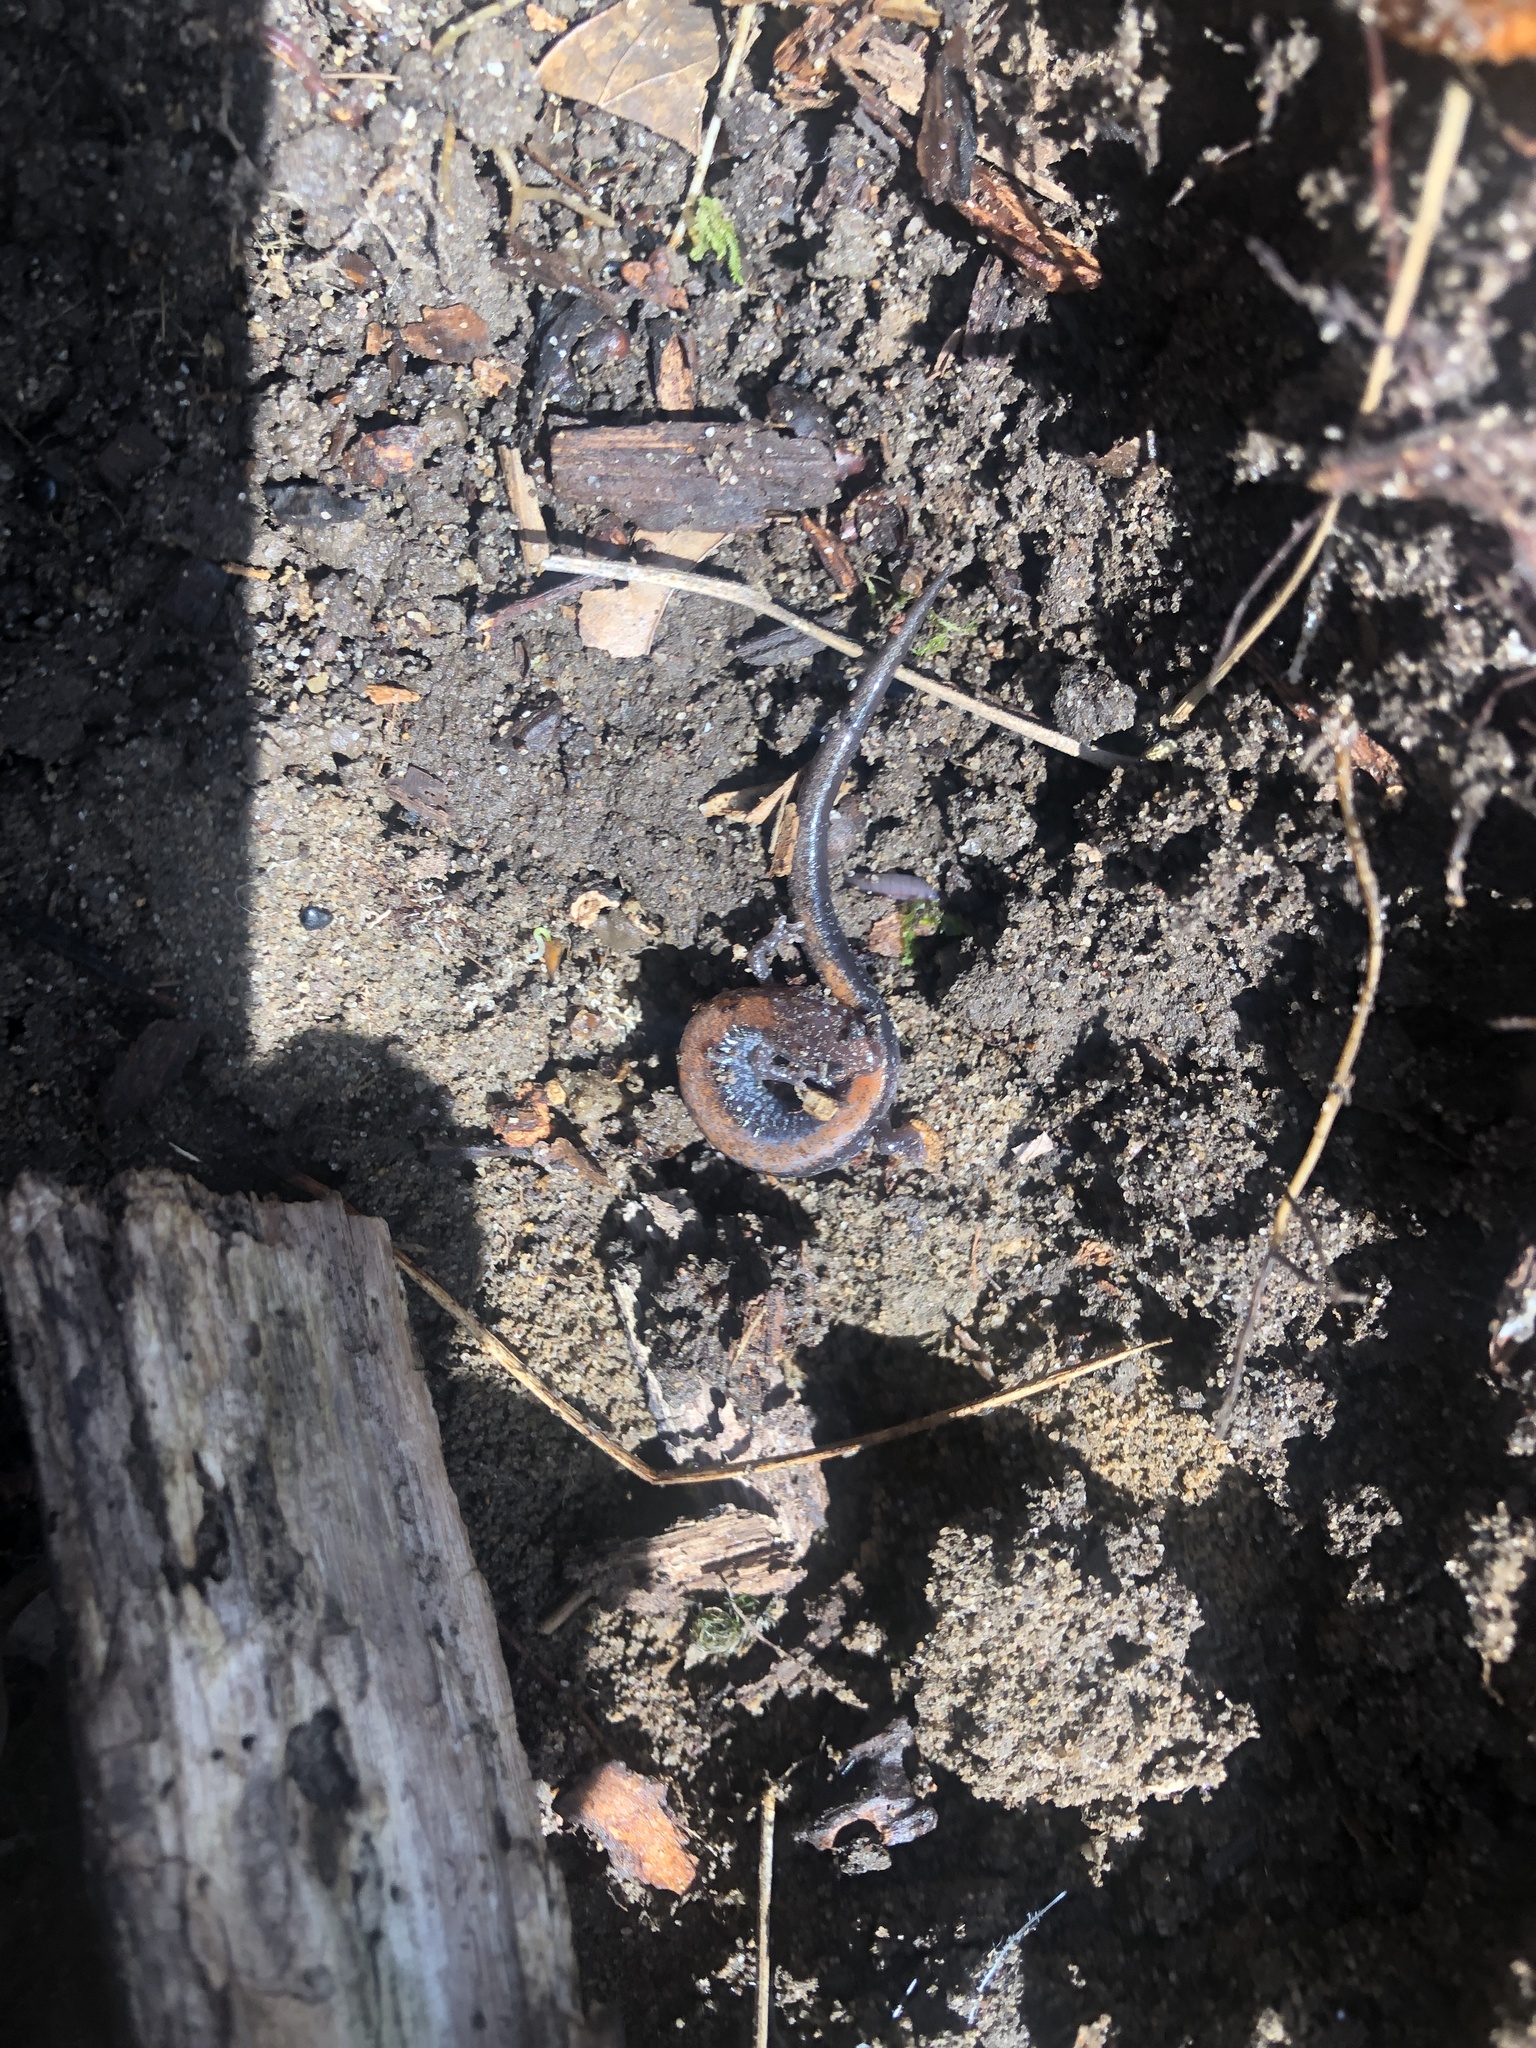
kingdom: Animalia
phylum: Chordata
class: Amphibia
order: Caudata
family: Plethodontidae
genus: Plethodon
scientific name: Plethodon cinereus
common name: Redback salamander
